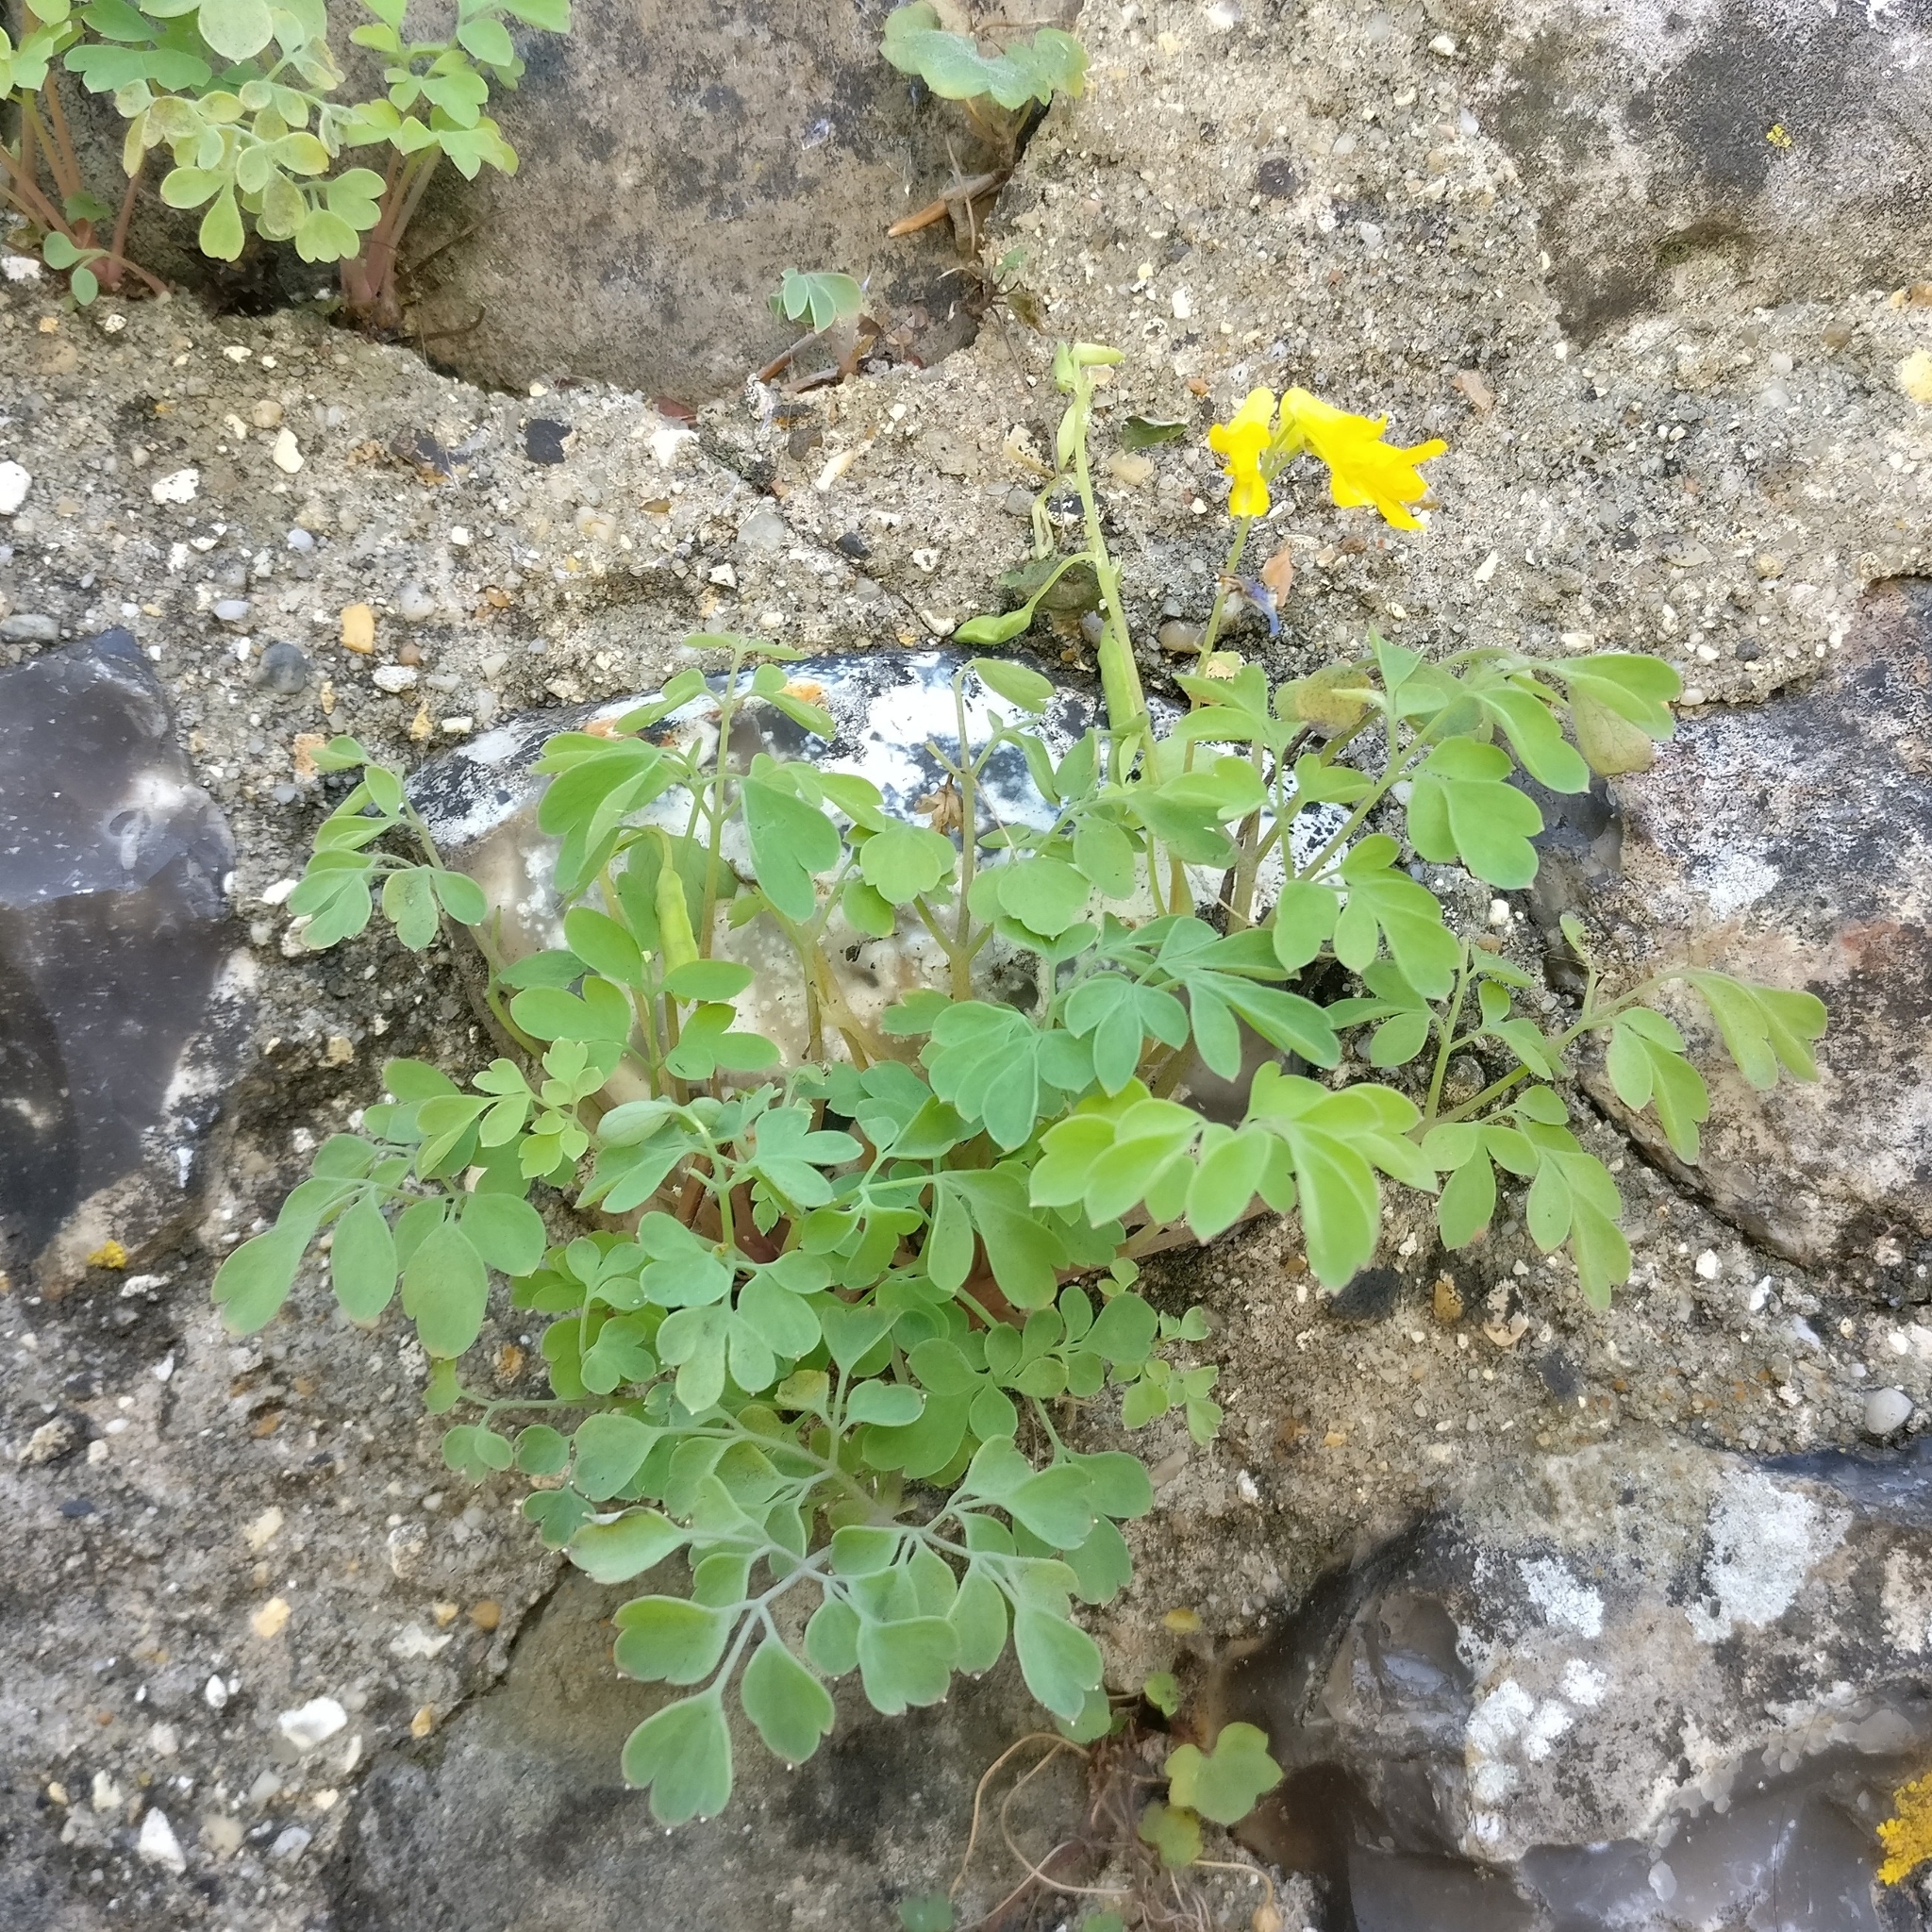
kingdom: Plantae
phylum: Tracheophyta
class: Magnoliopsida
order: Ranunculales
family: Papaveraceae
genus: Pseudofumaria
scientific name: Pseudofumaria lutea
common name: Yellow corydalis
